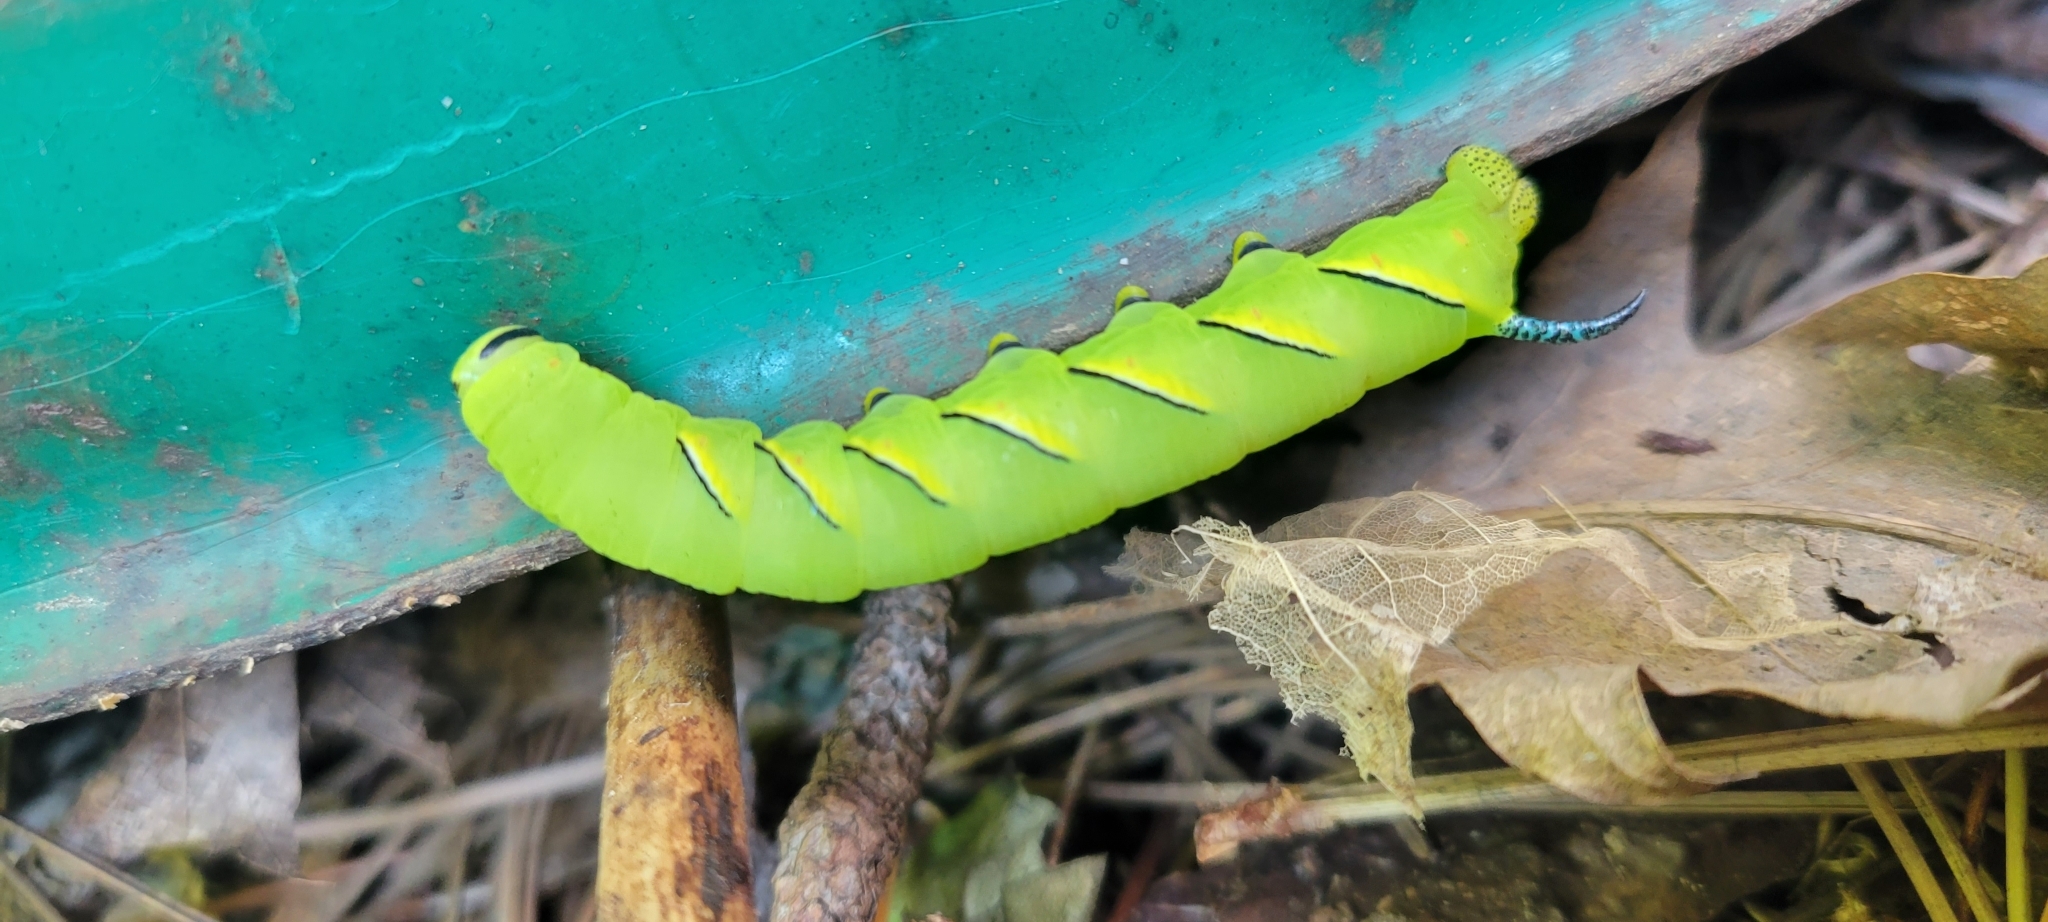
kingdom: Animalia
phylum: Arthropoda
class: Insecta
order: Lepidoptera
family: Sphingidae
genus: Sphinx
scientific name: Sphinx kalmiae
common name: Laurel sphinx
